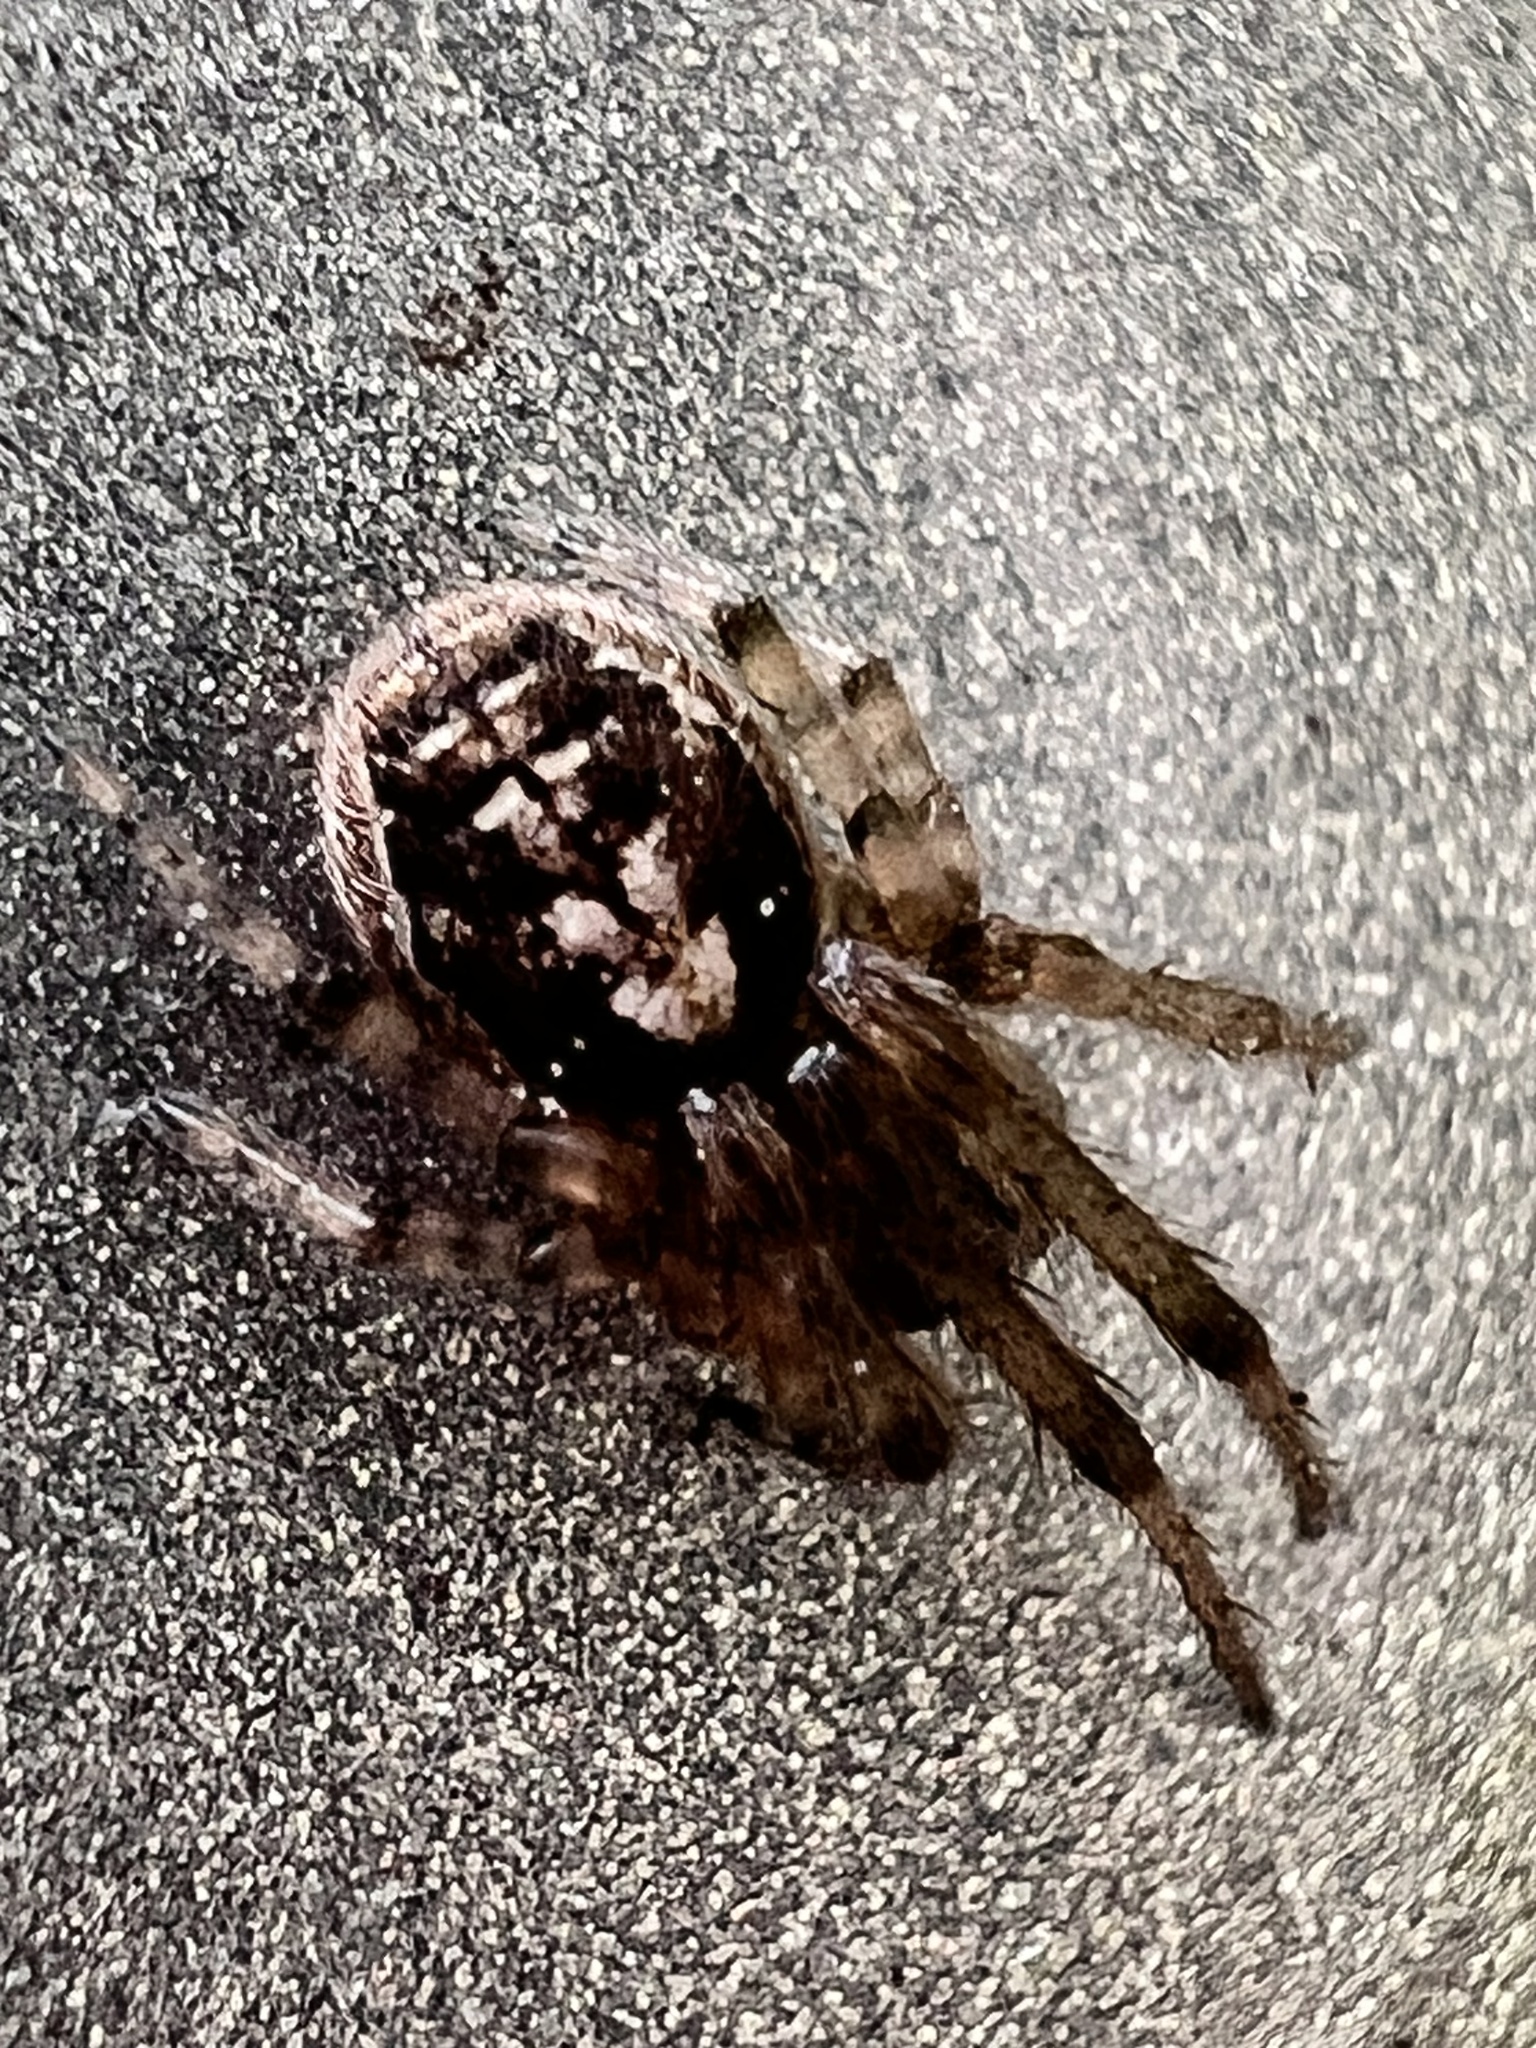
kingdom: Animalia
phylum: Arthropoda
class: Arachnida
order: Araneae
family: Araneidae
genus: Zygiella
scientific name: Zygiella x-notata
